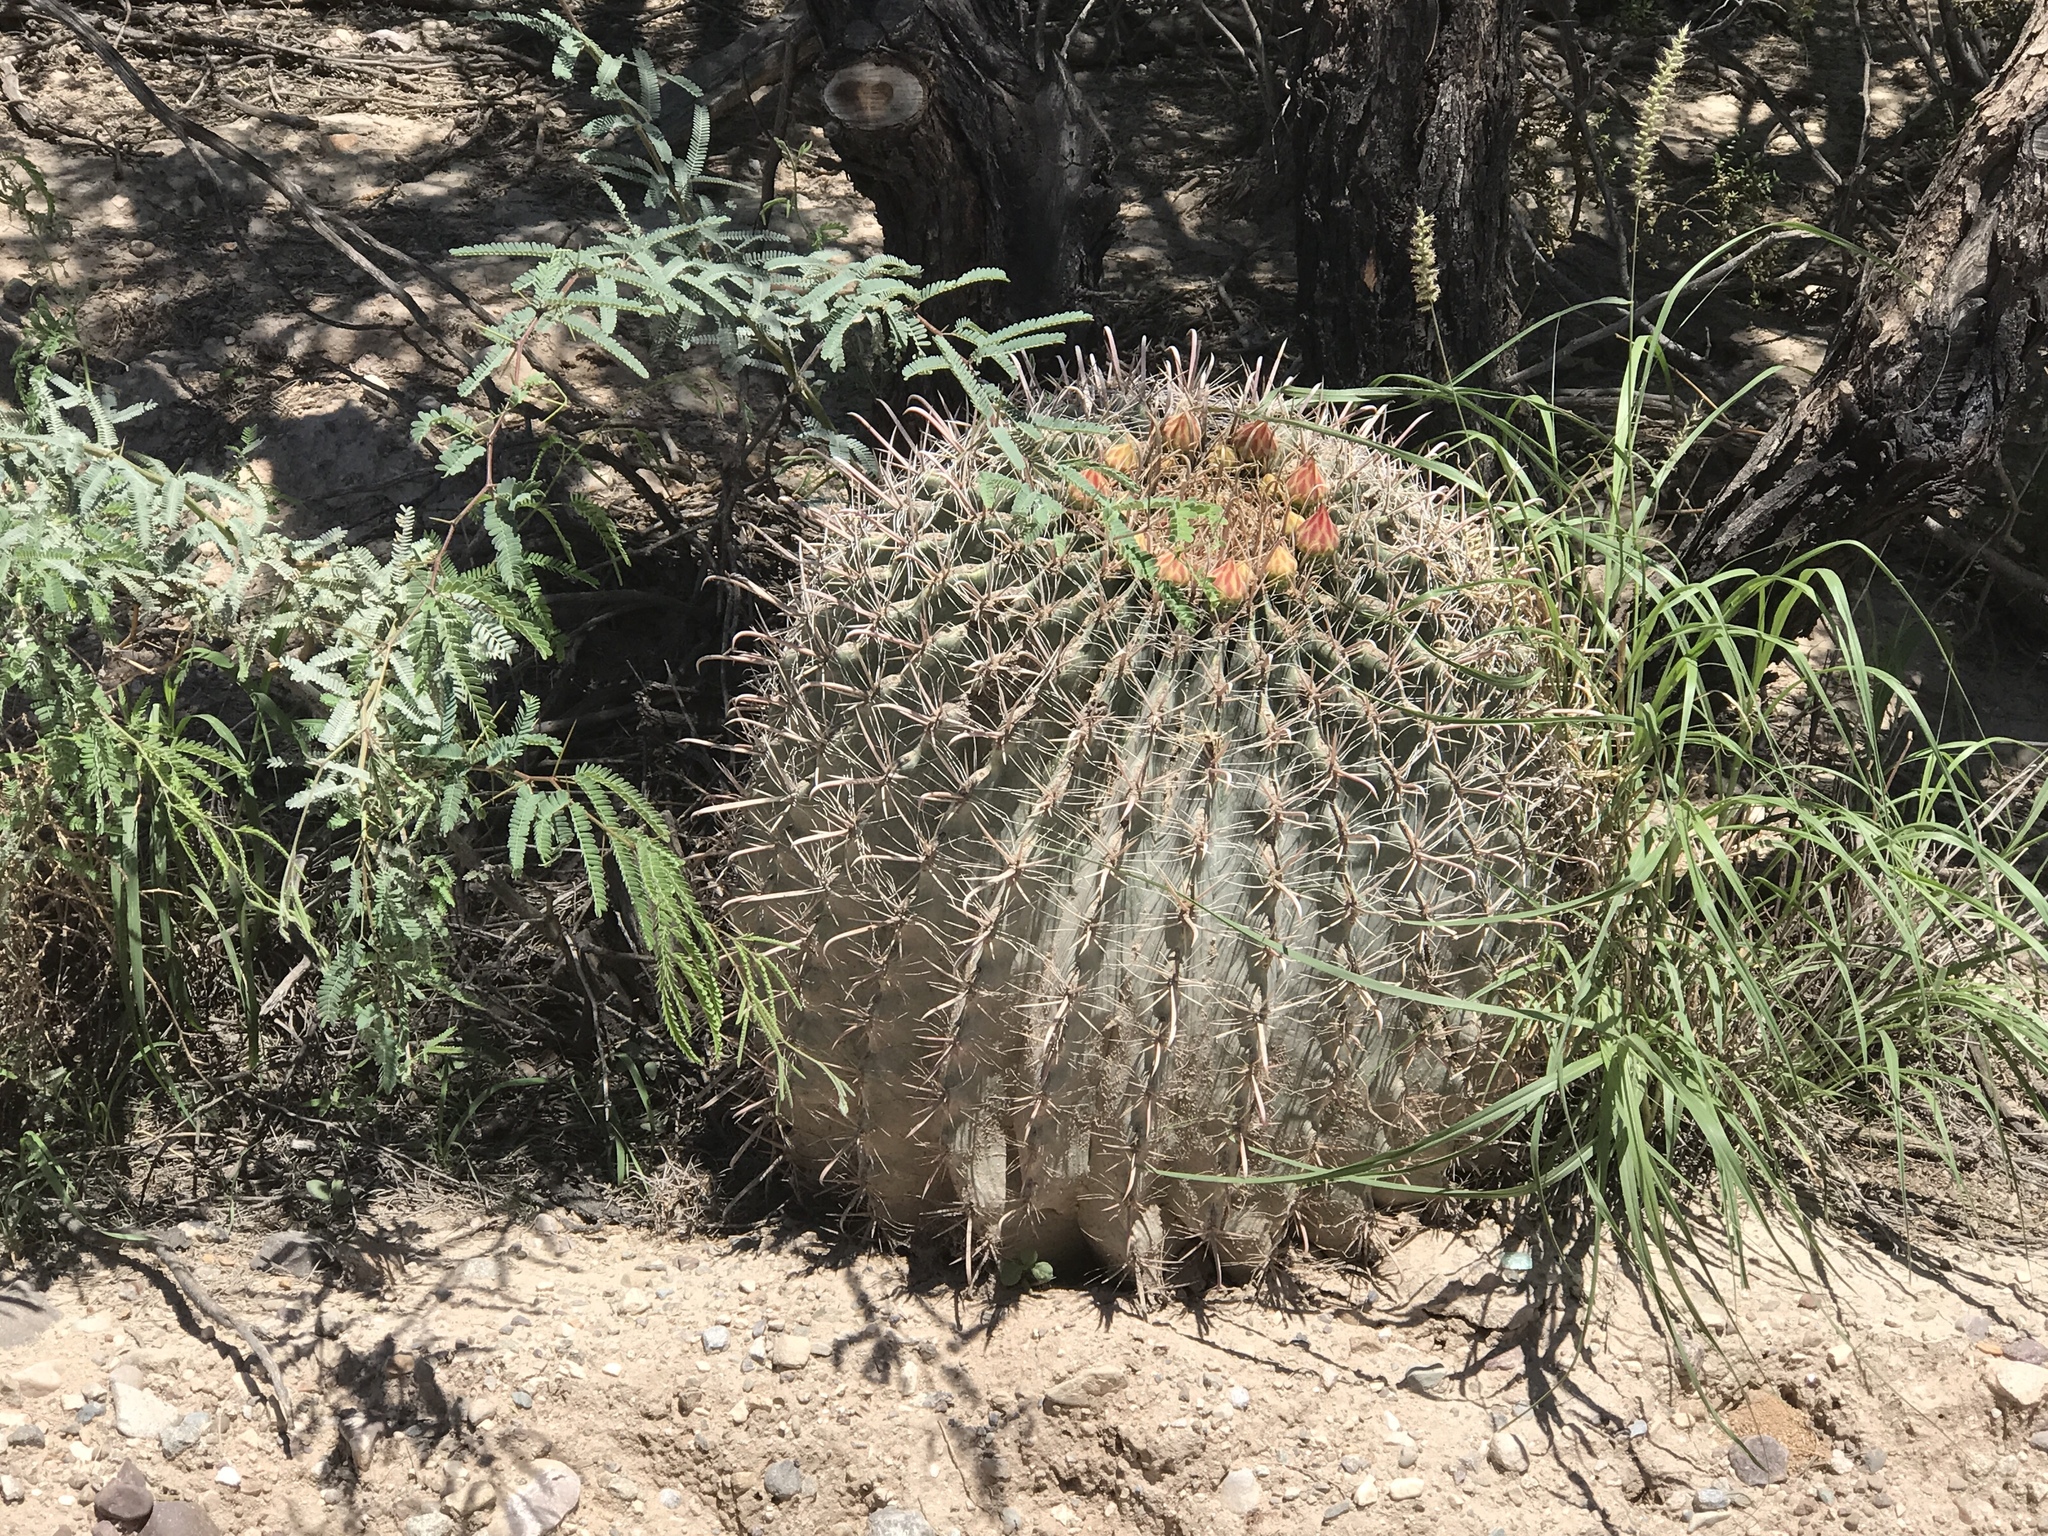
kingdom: Plantae
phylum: Tracheophyta
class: Magnoliopsida
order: Caryophyllales
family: Cactaceae
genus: Ferocactus
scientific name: Ferocactus wislizeni
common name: Candy barrel cactus
